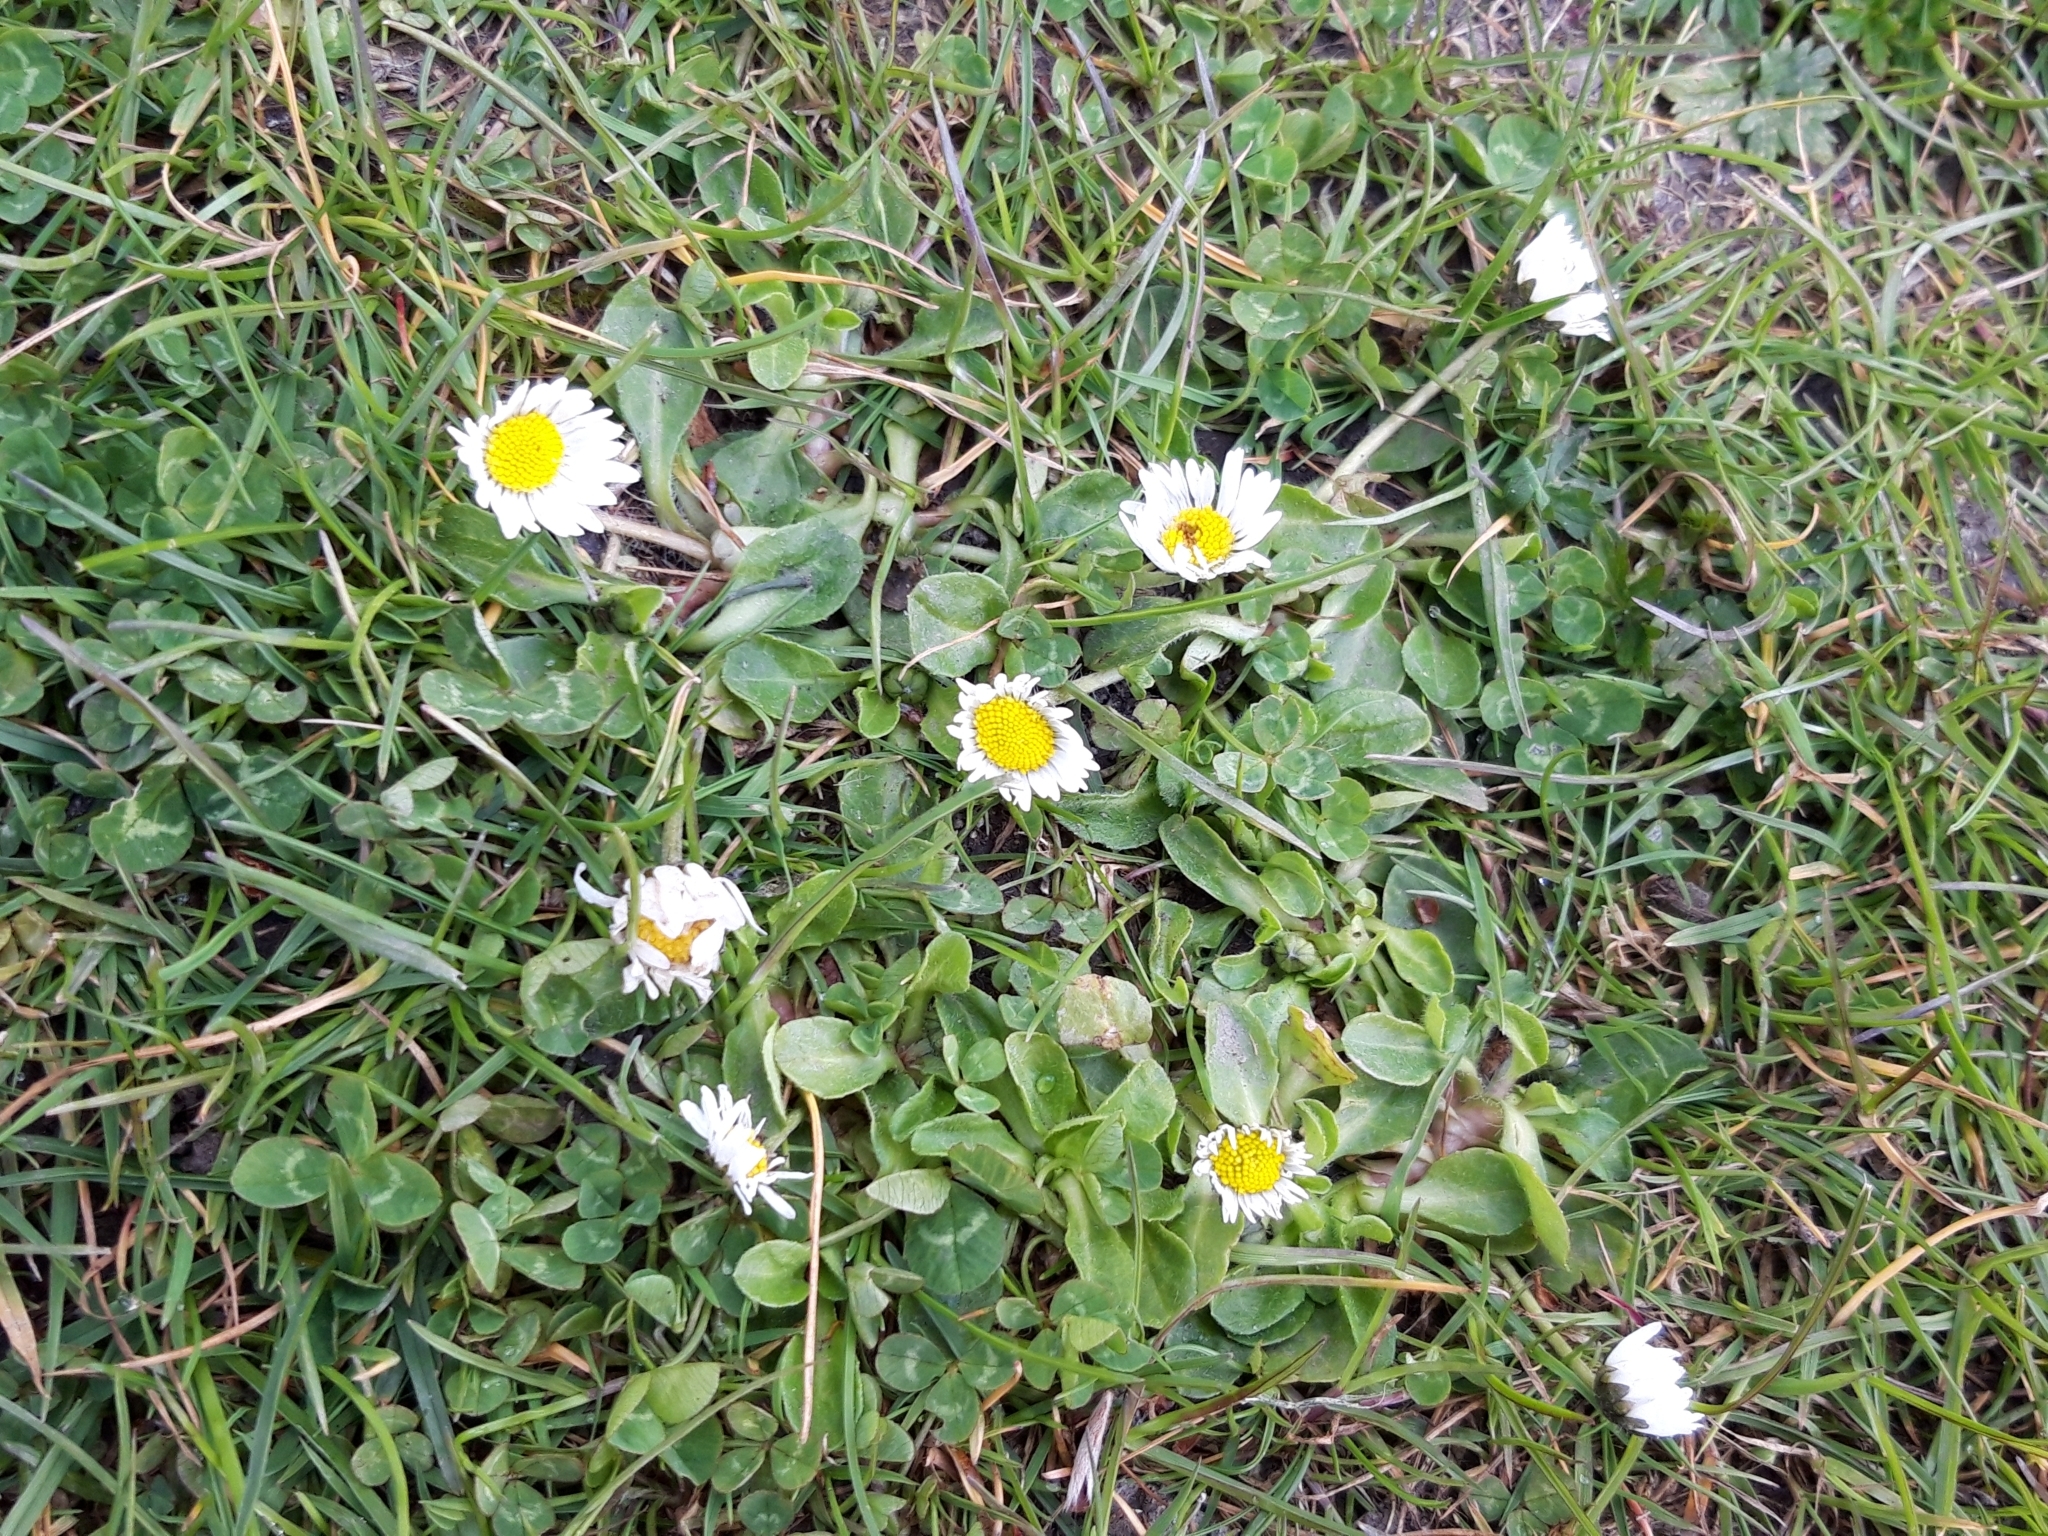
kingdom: Plantae
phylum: Tracheophyta
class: Magnoliopsida
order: Asterales
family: Asteraceae
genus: Bellis
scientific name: Bellis perennis
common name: Lawndaisy
